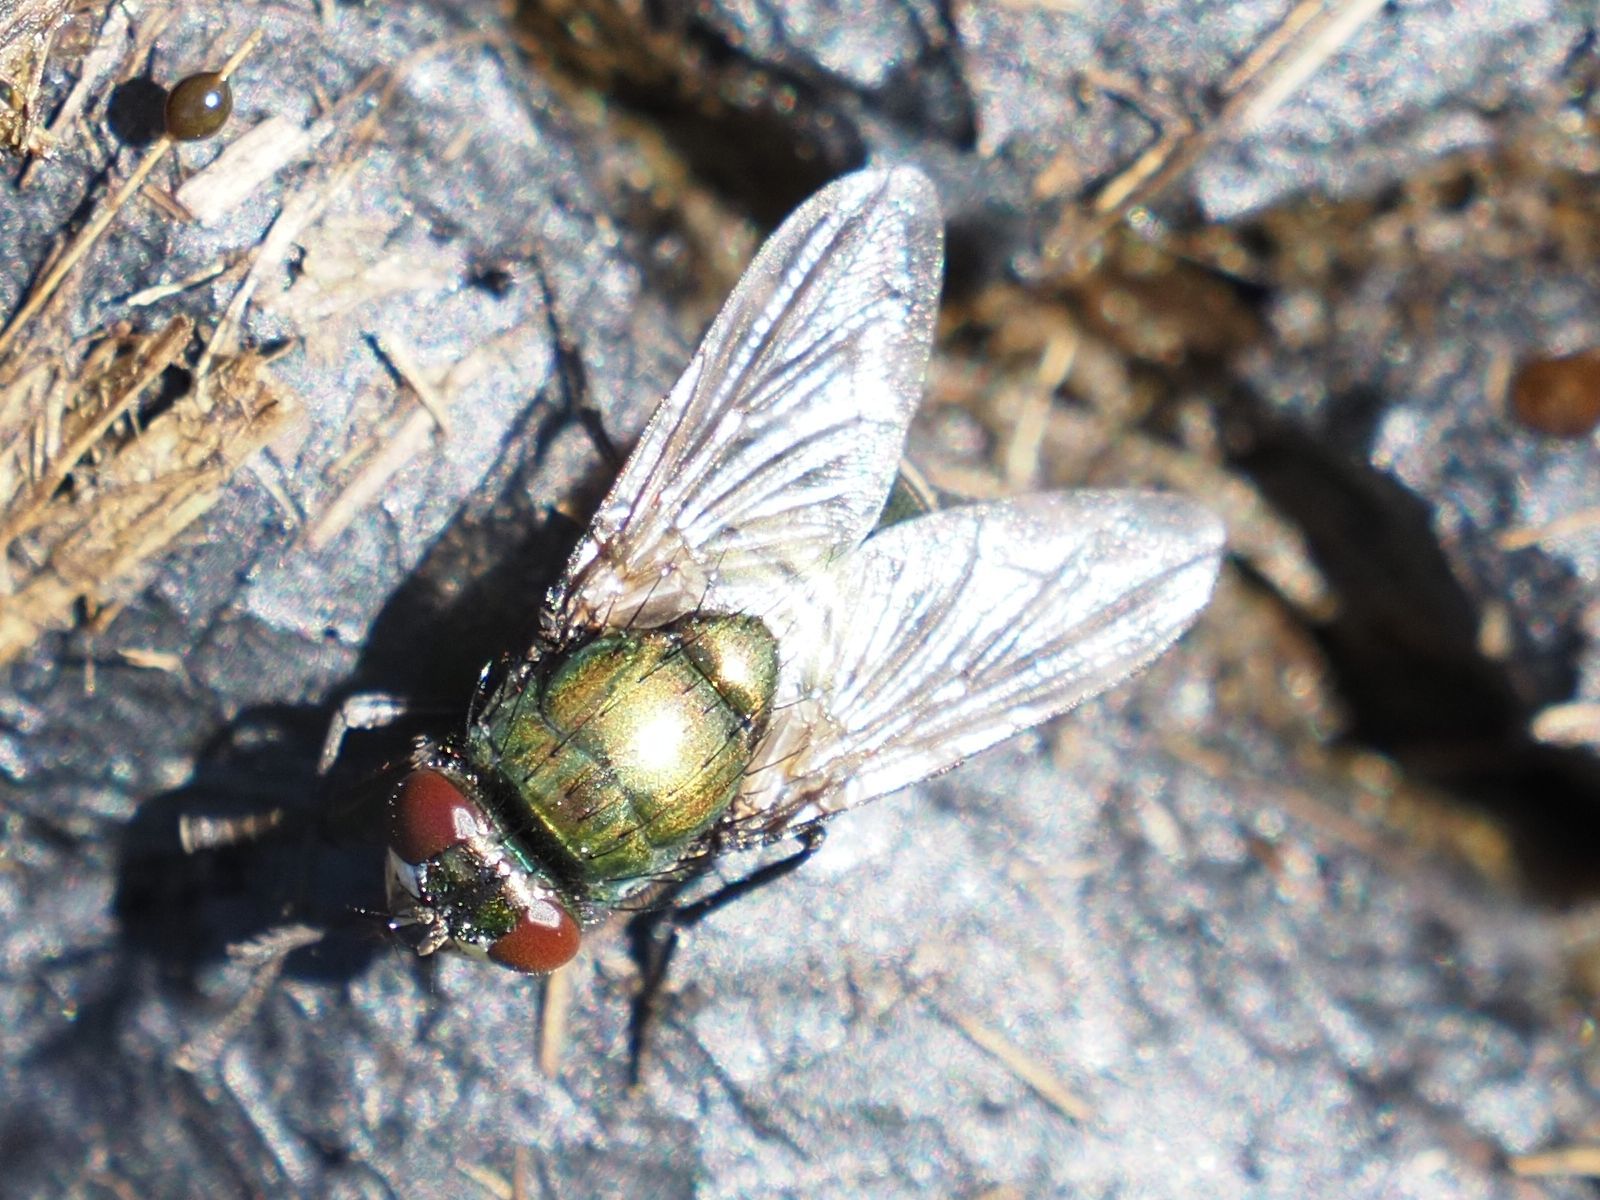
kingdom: Animalia
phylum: Arthropoda
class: Insecta
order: Diptera
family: Muscidae
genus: Neomyia
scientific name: Neomyia cornicina
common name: House fly
